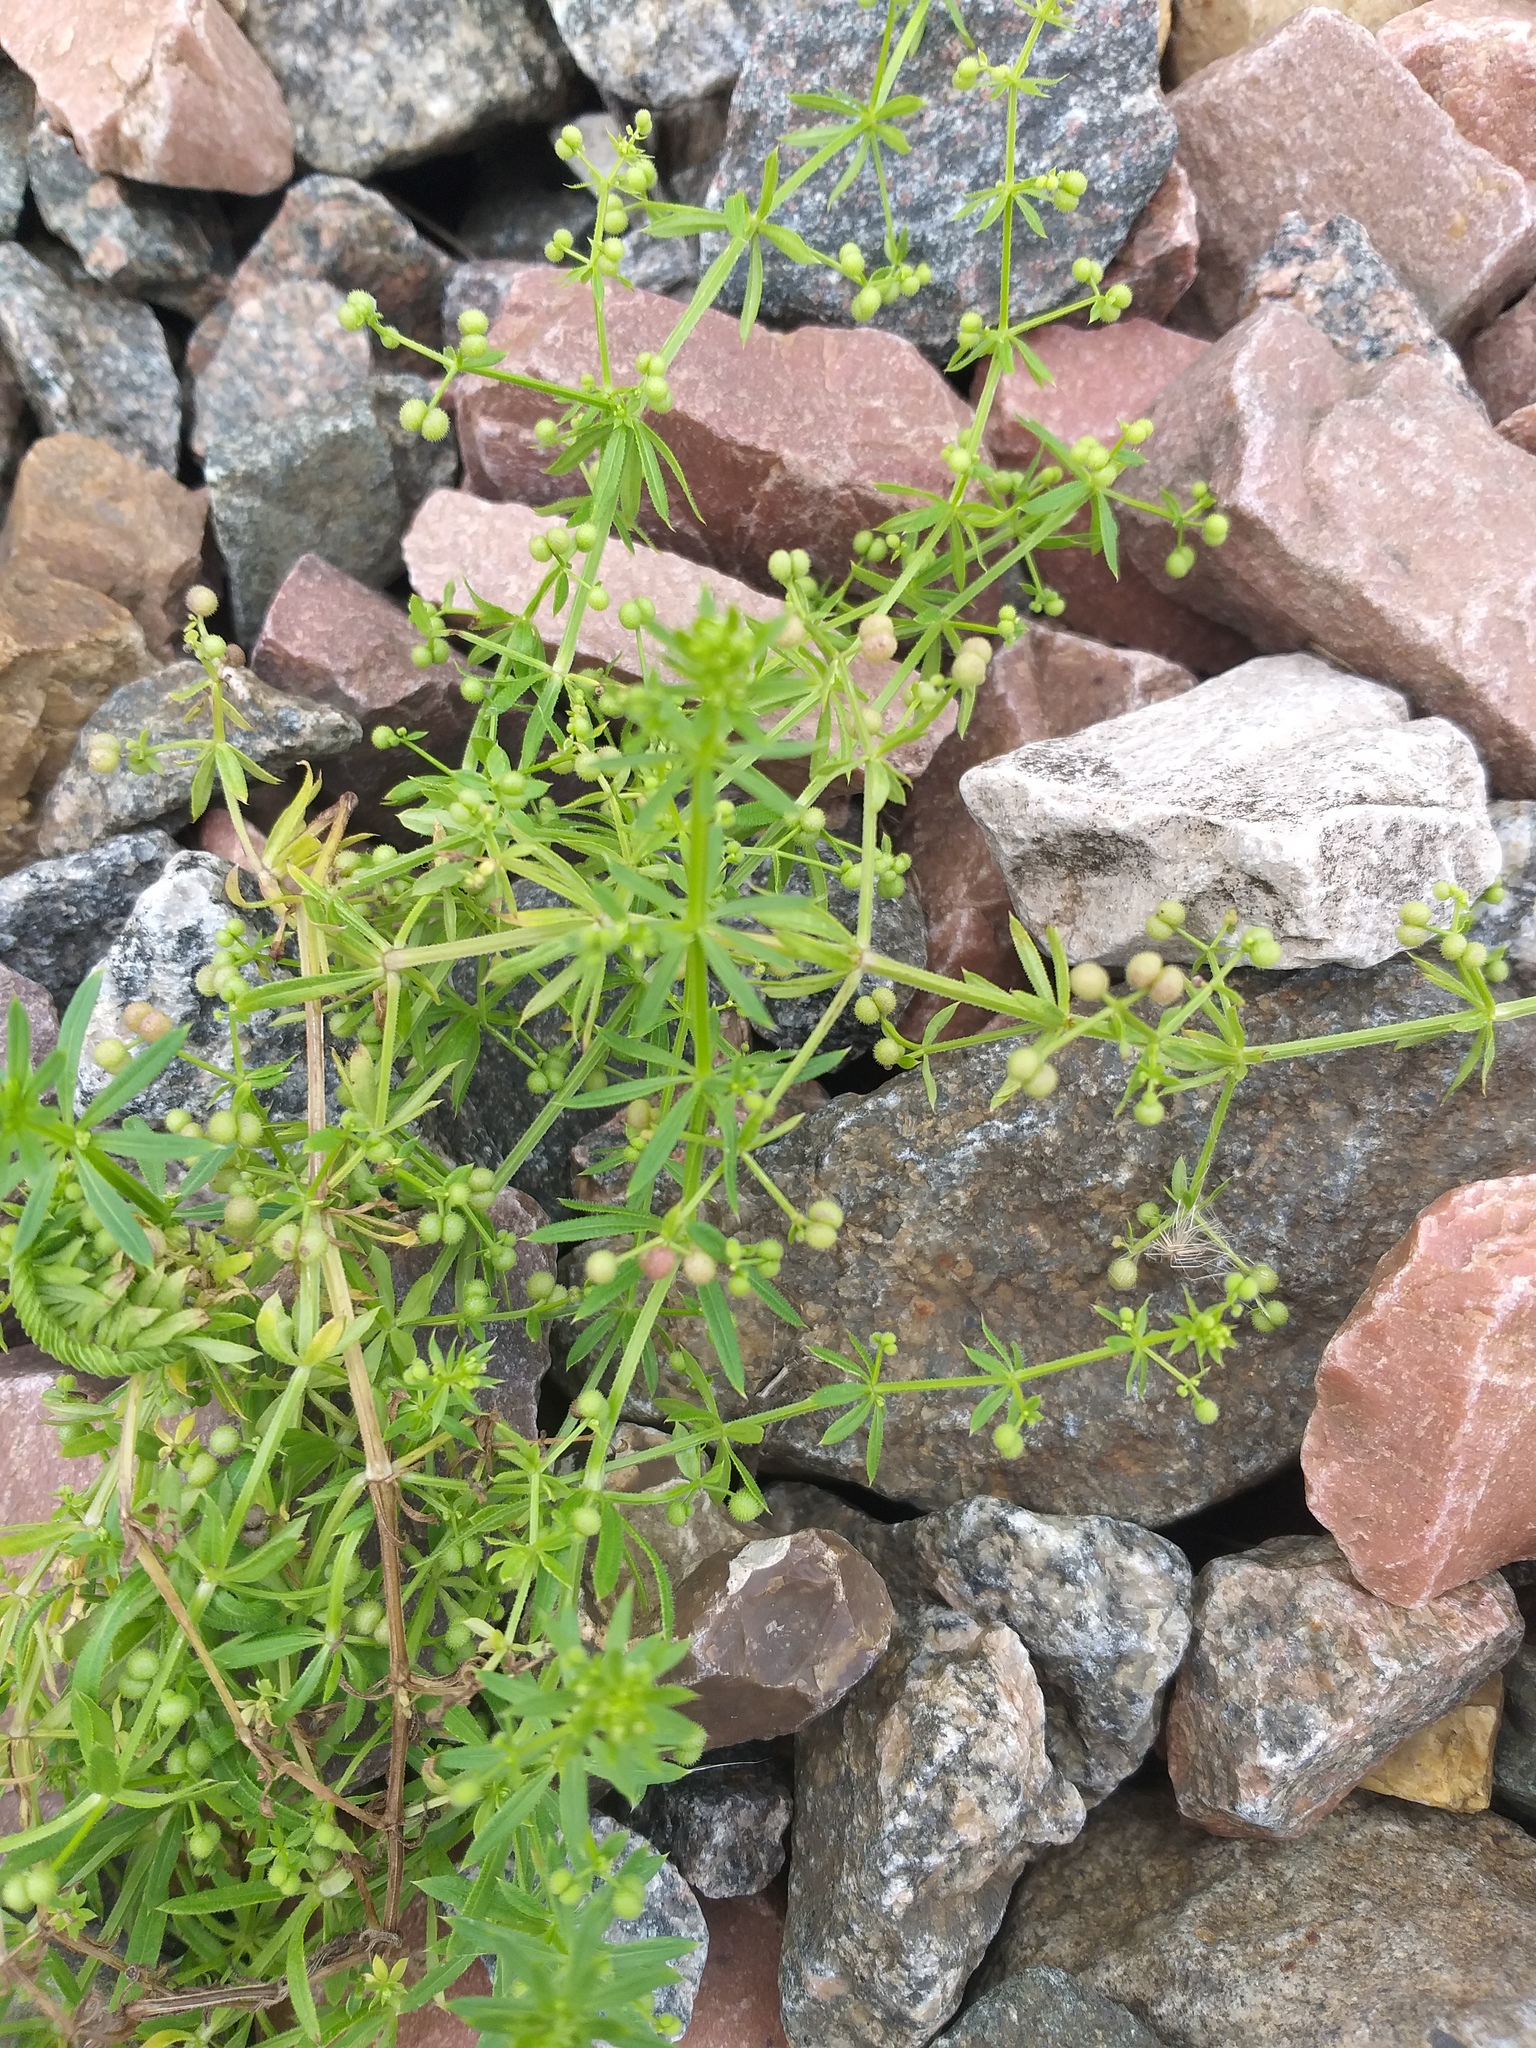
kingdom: Plantae
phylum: Tracheophyta
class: Magnoliopsida
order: Gentianales
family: Rubiaceae
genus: Galium
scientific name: Galium
